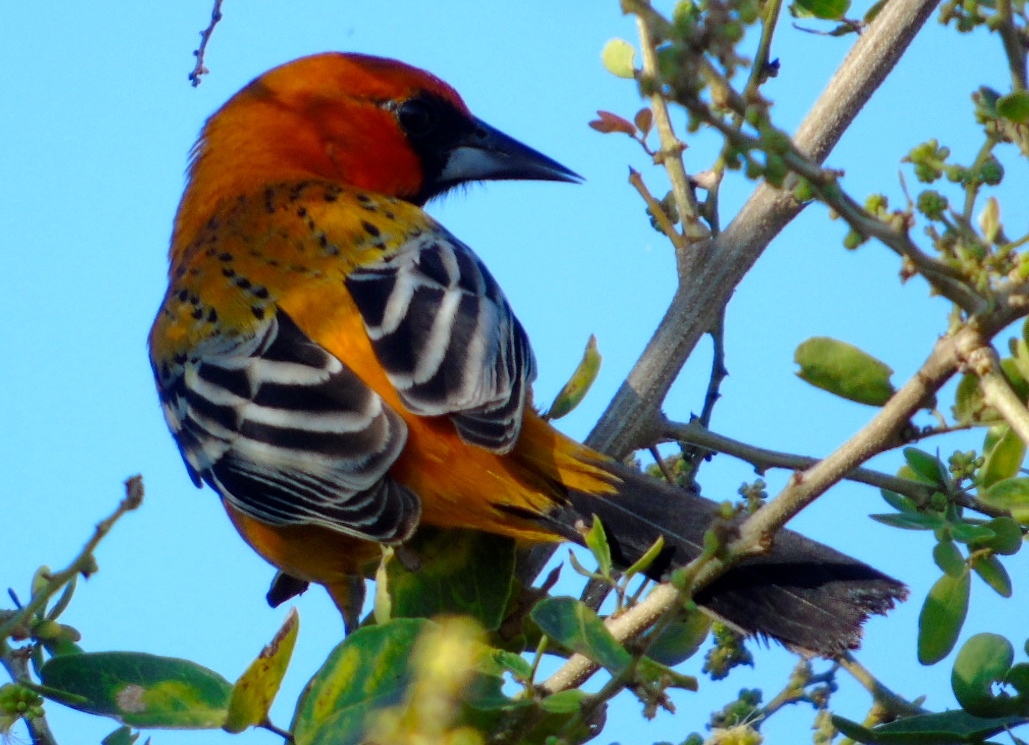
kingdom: Animalia
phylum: Chordata
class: Aves
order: Passeriformes
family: Icteridae
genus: Icterus
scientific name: Icterus pustulatus
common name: Streak-backed oriole
